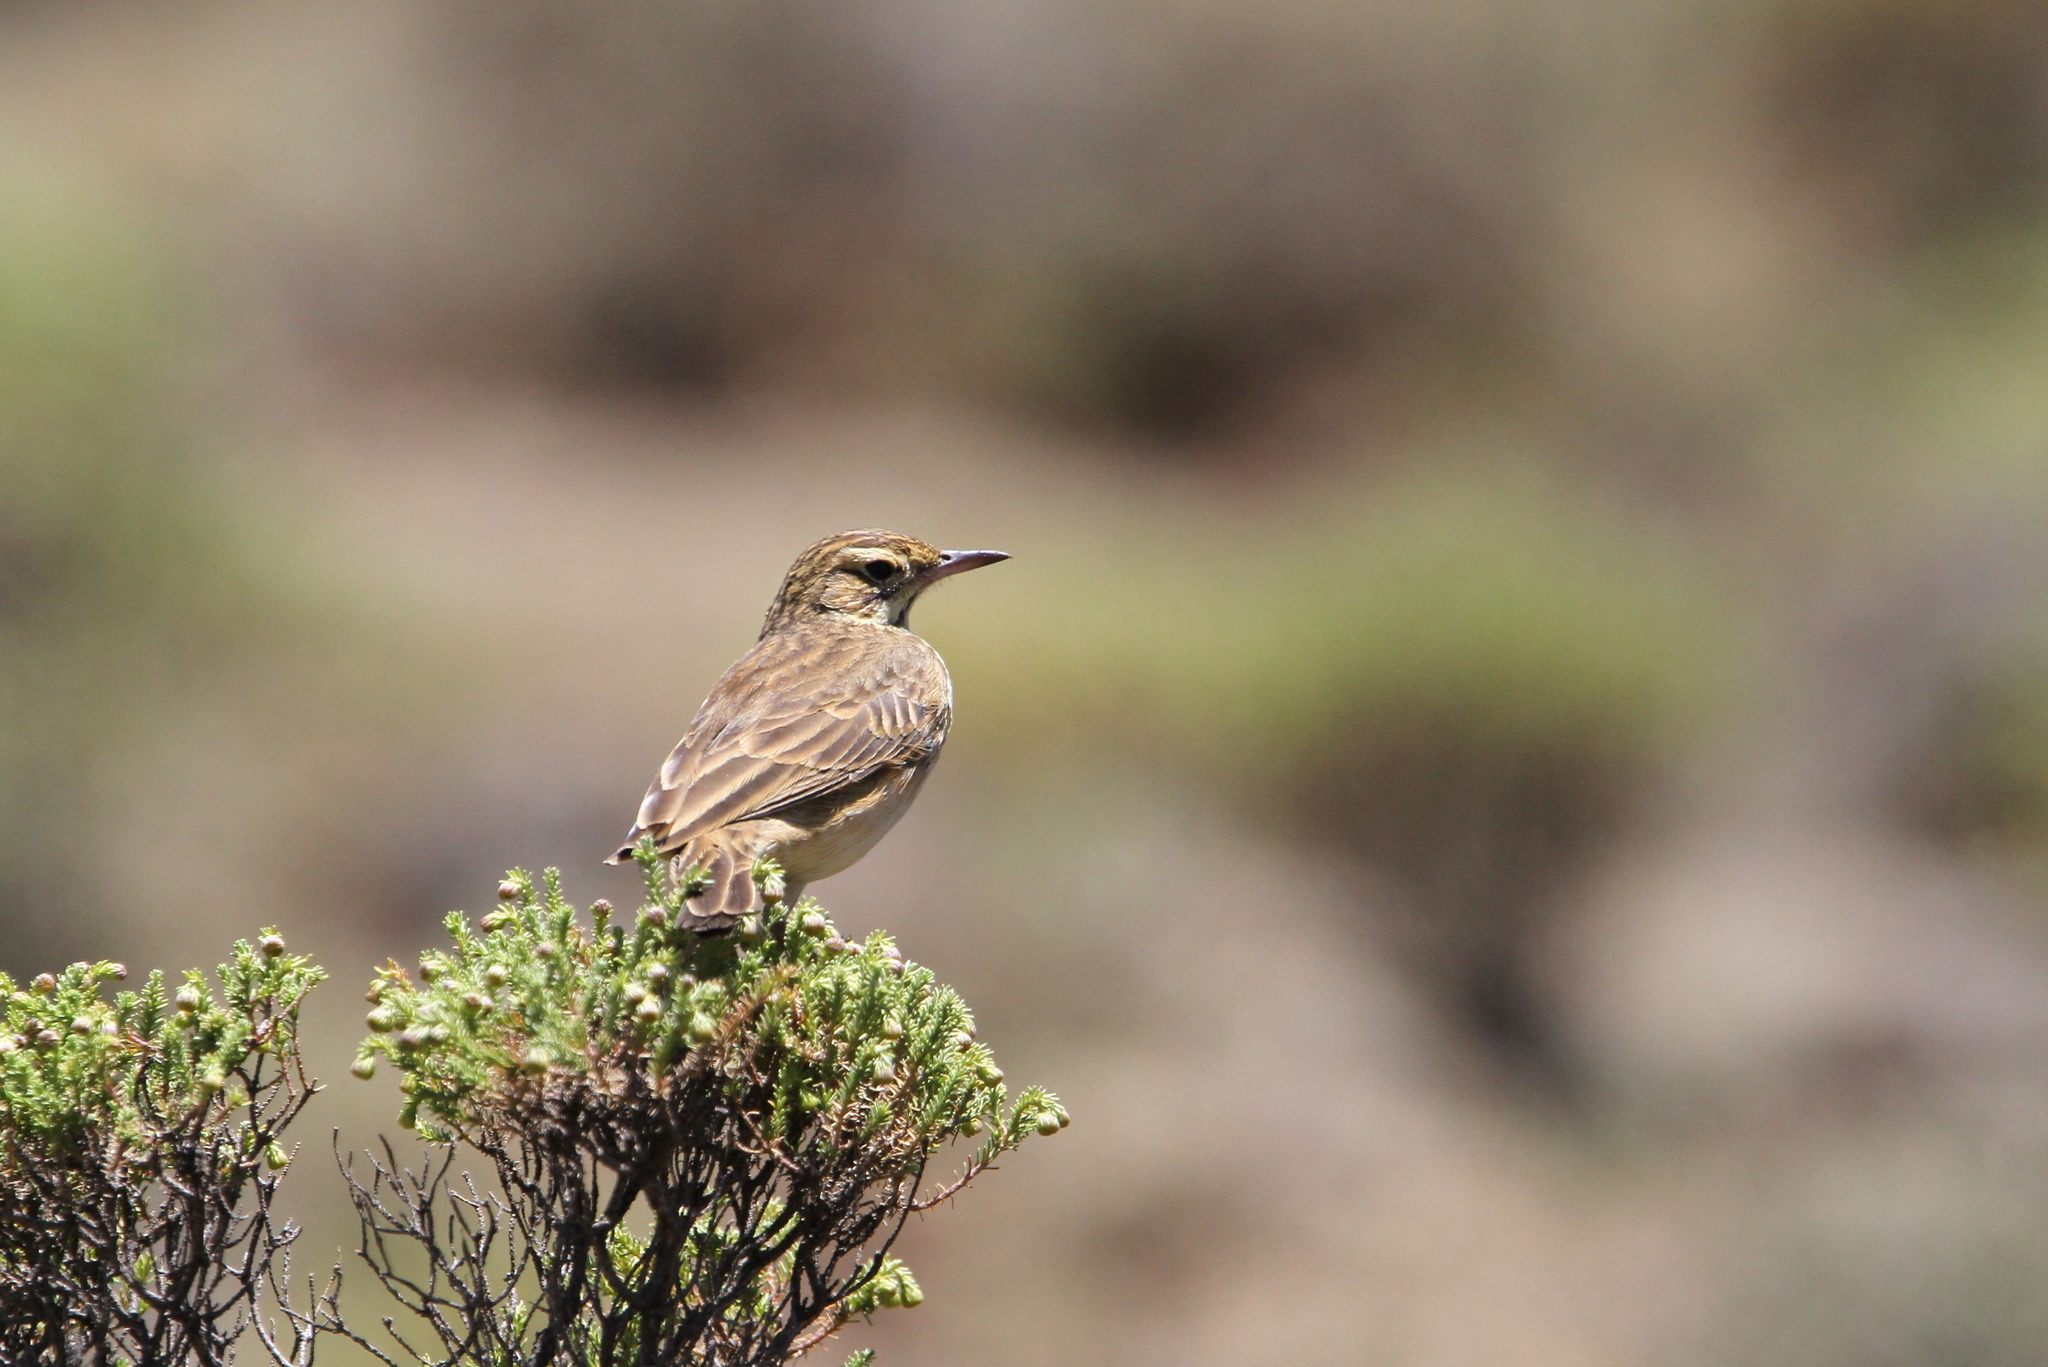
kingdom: Animalia
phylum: Chordata
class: Aves
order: Passeriformes
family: Motacillidae
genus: Anthus
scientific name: Anthus hoeschi
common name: Mountain pipit
